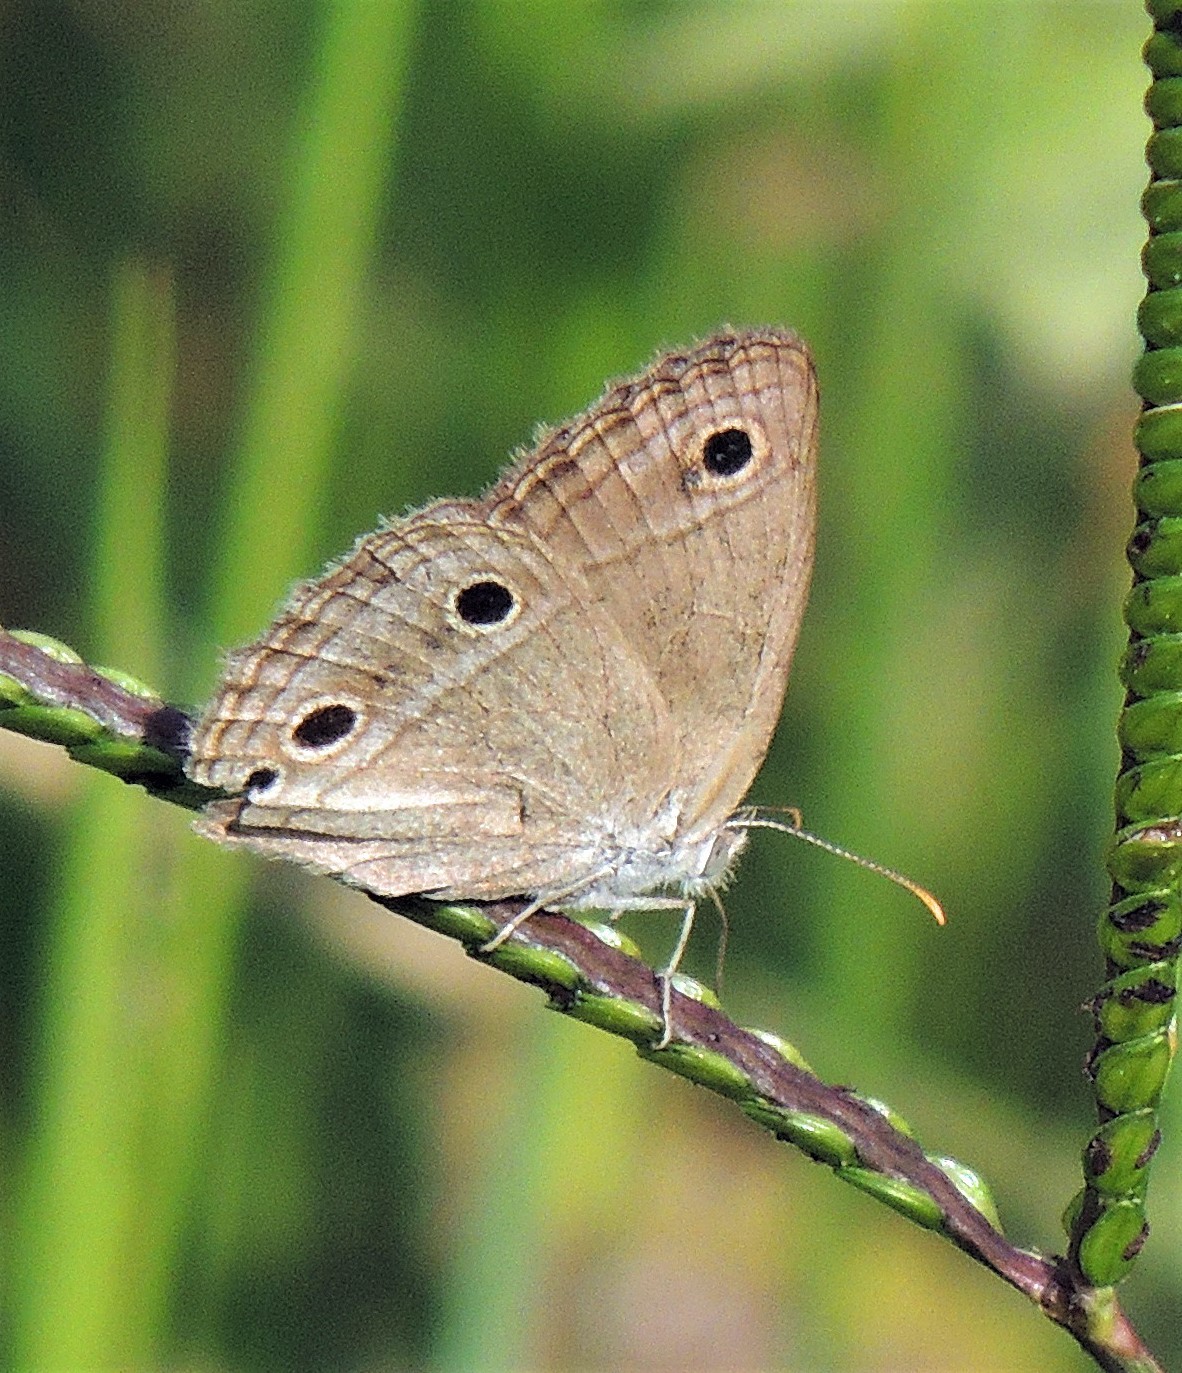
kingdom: Animalia
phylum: Arthropoda
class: Insecta
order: Lepidoptera
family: Nymphalidae
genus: Stegosatyrus
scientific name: Stegosatyrus periphas
